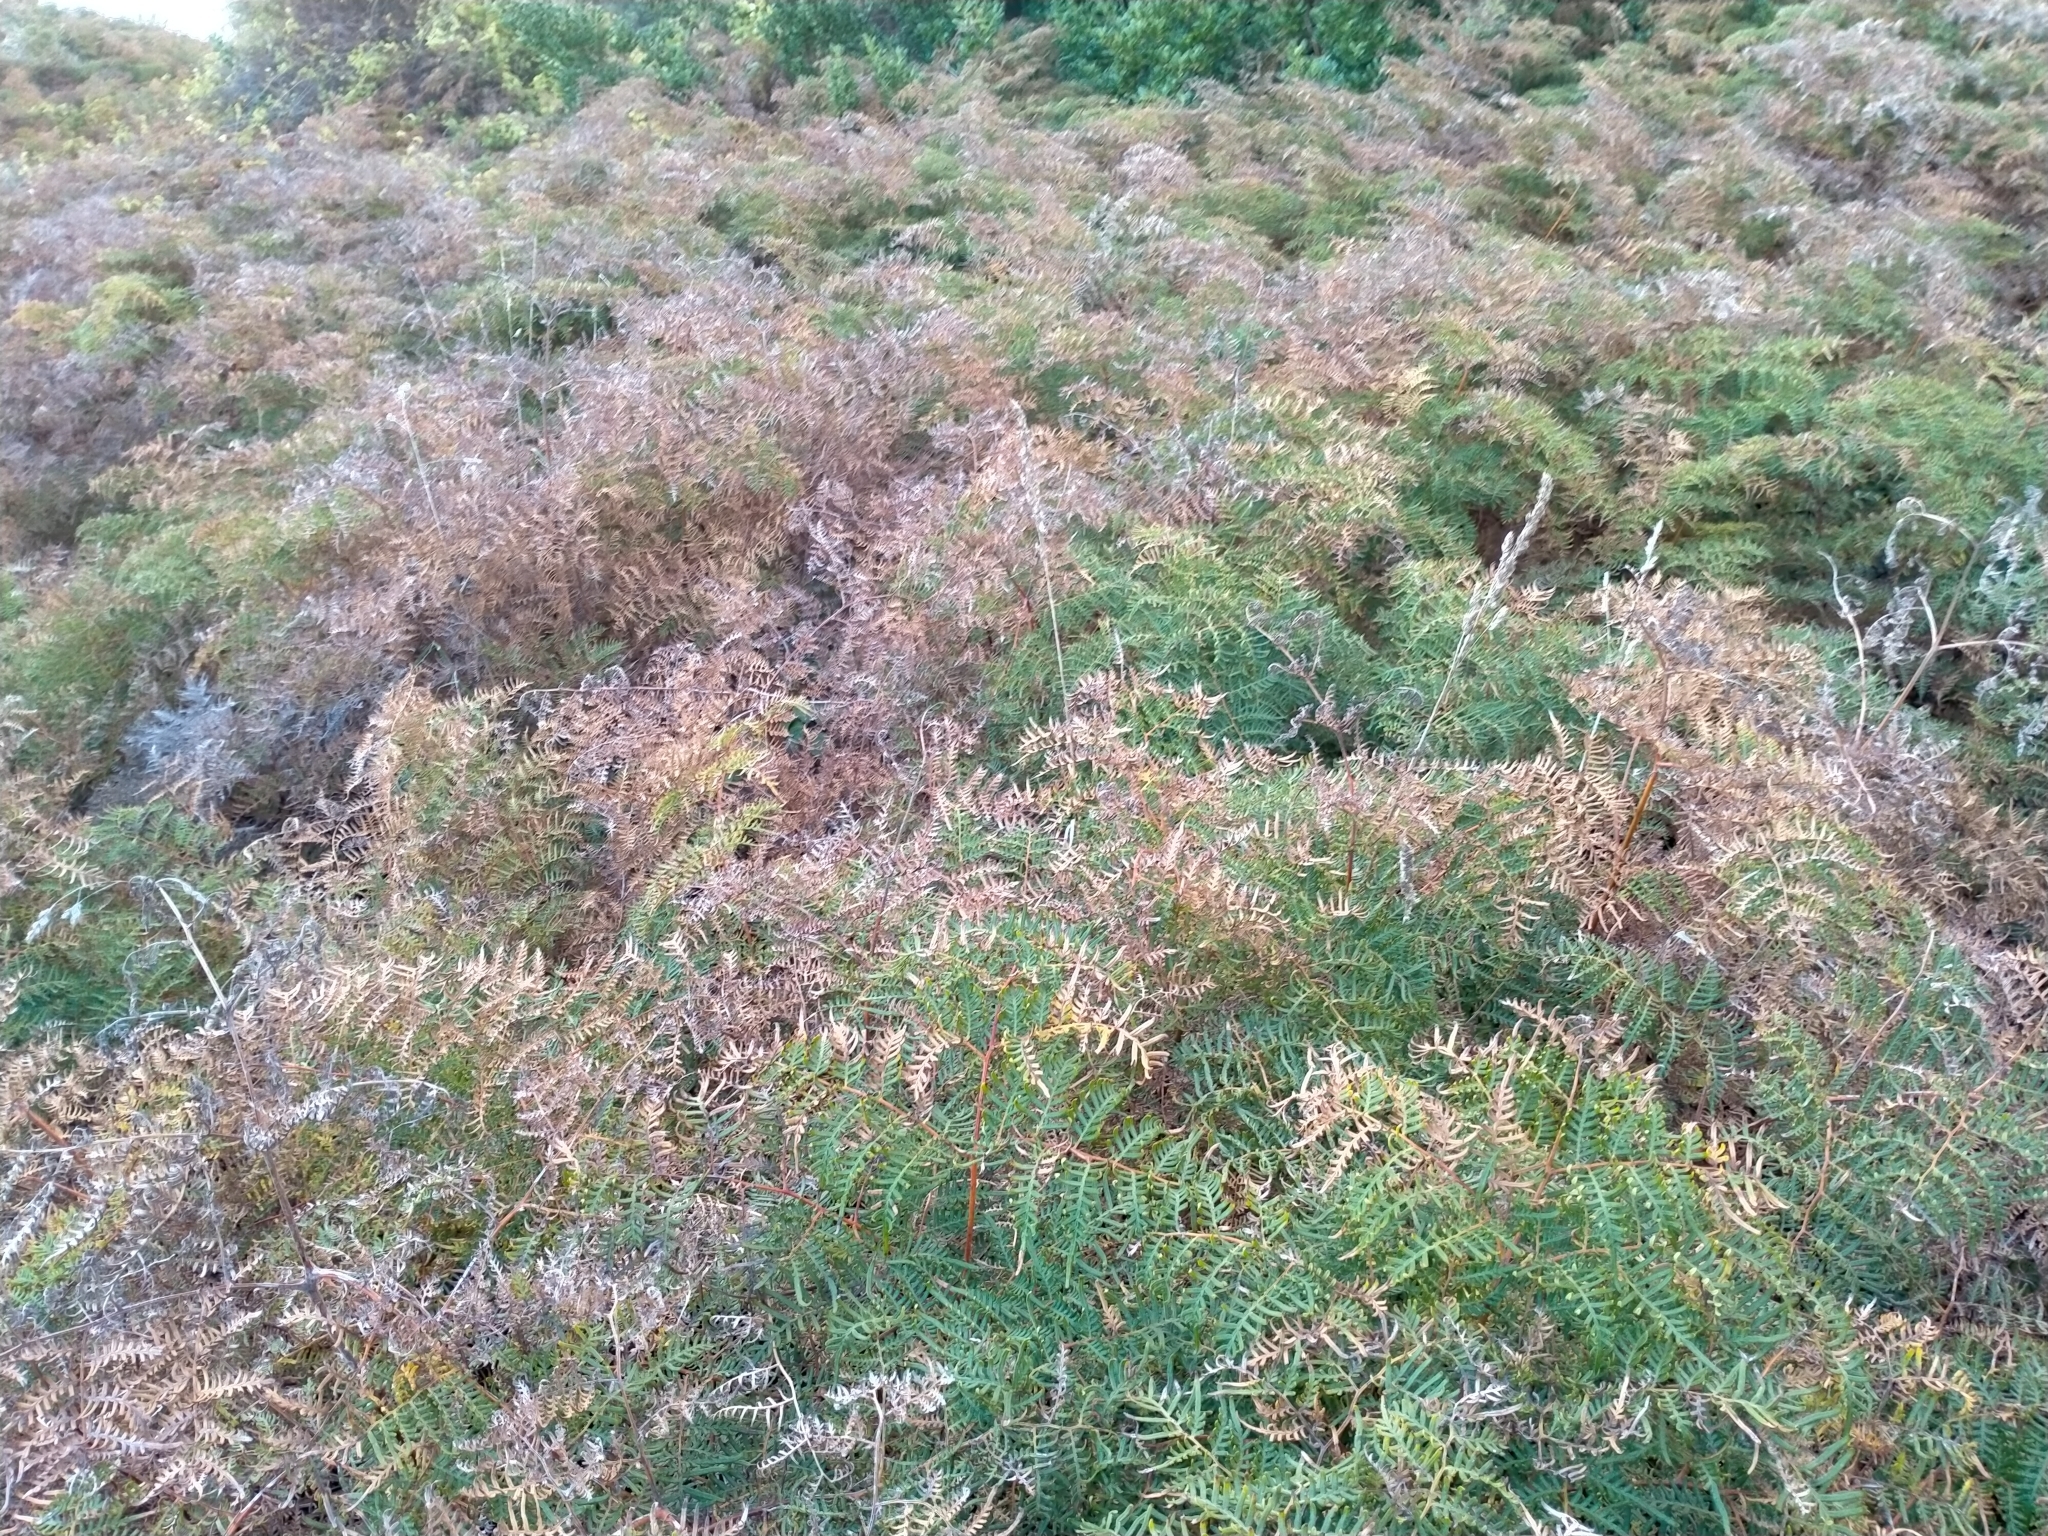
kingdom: Plantae
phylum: Tracheophyta
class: Polypodiopsida
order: Polypodiales
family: Dennstaedtiaceae
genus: Pteridium
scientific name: Pteridium esculentum
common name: Bracken fern
